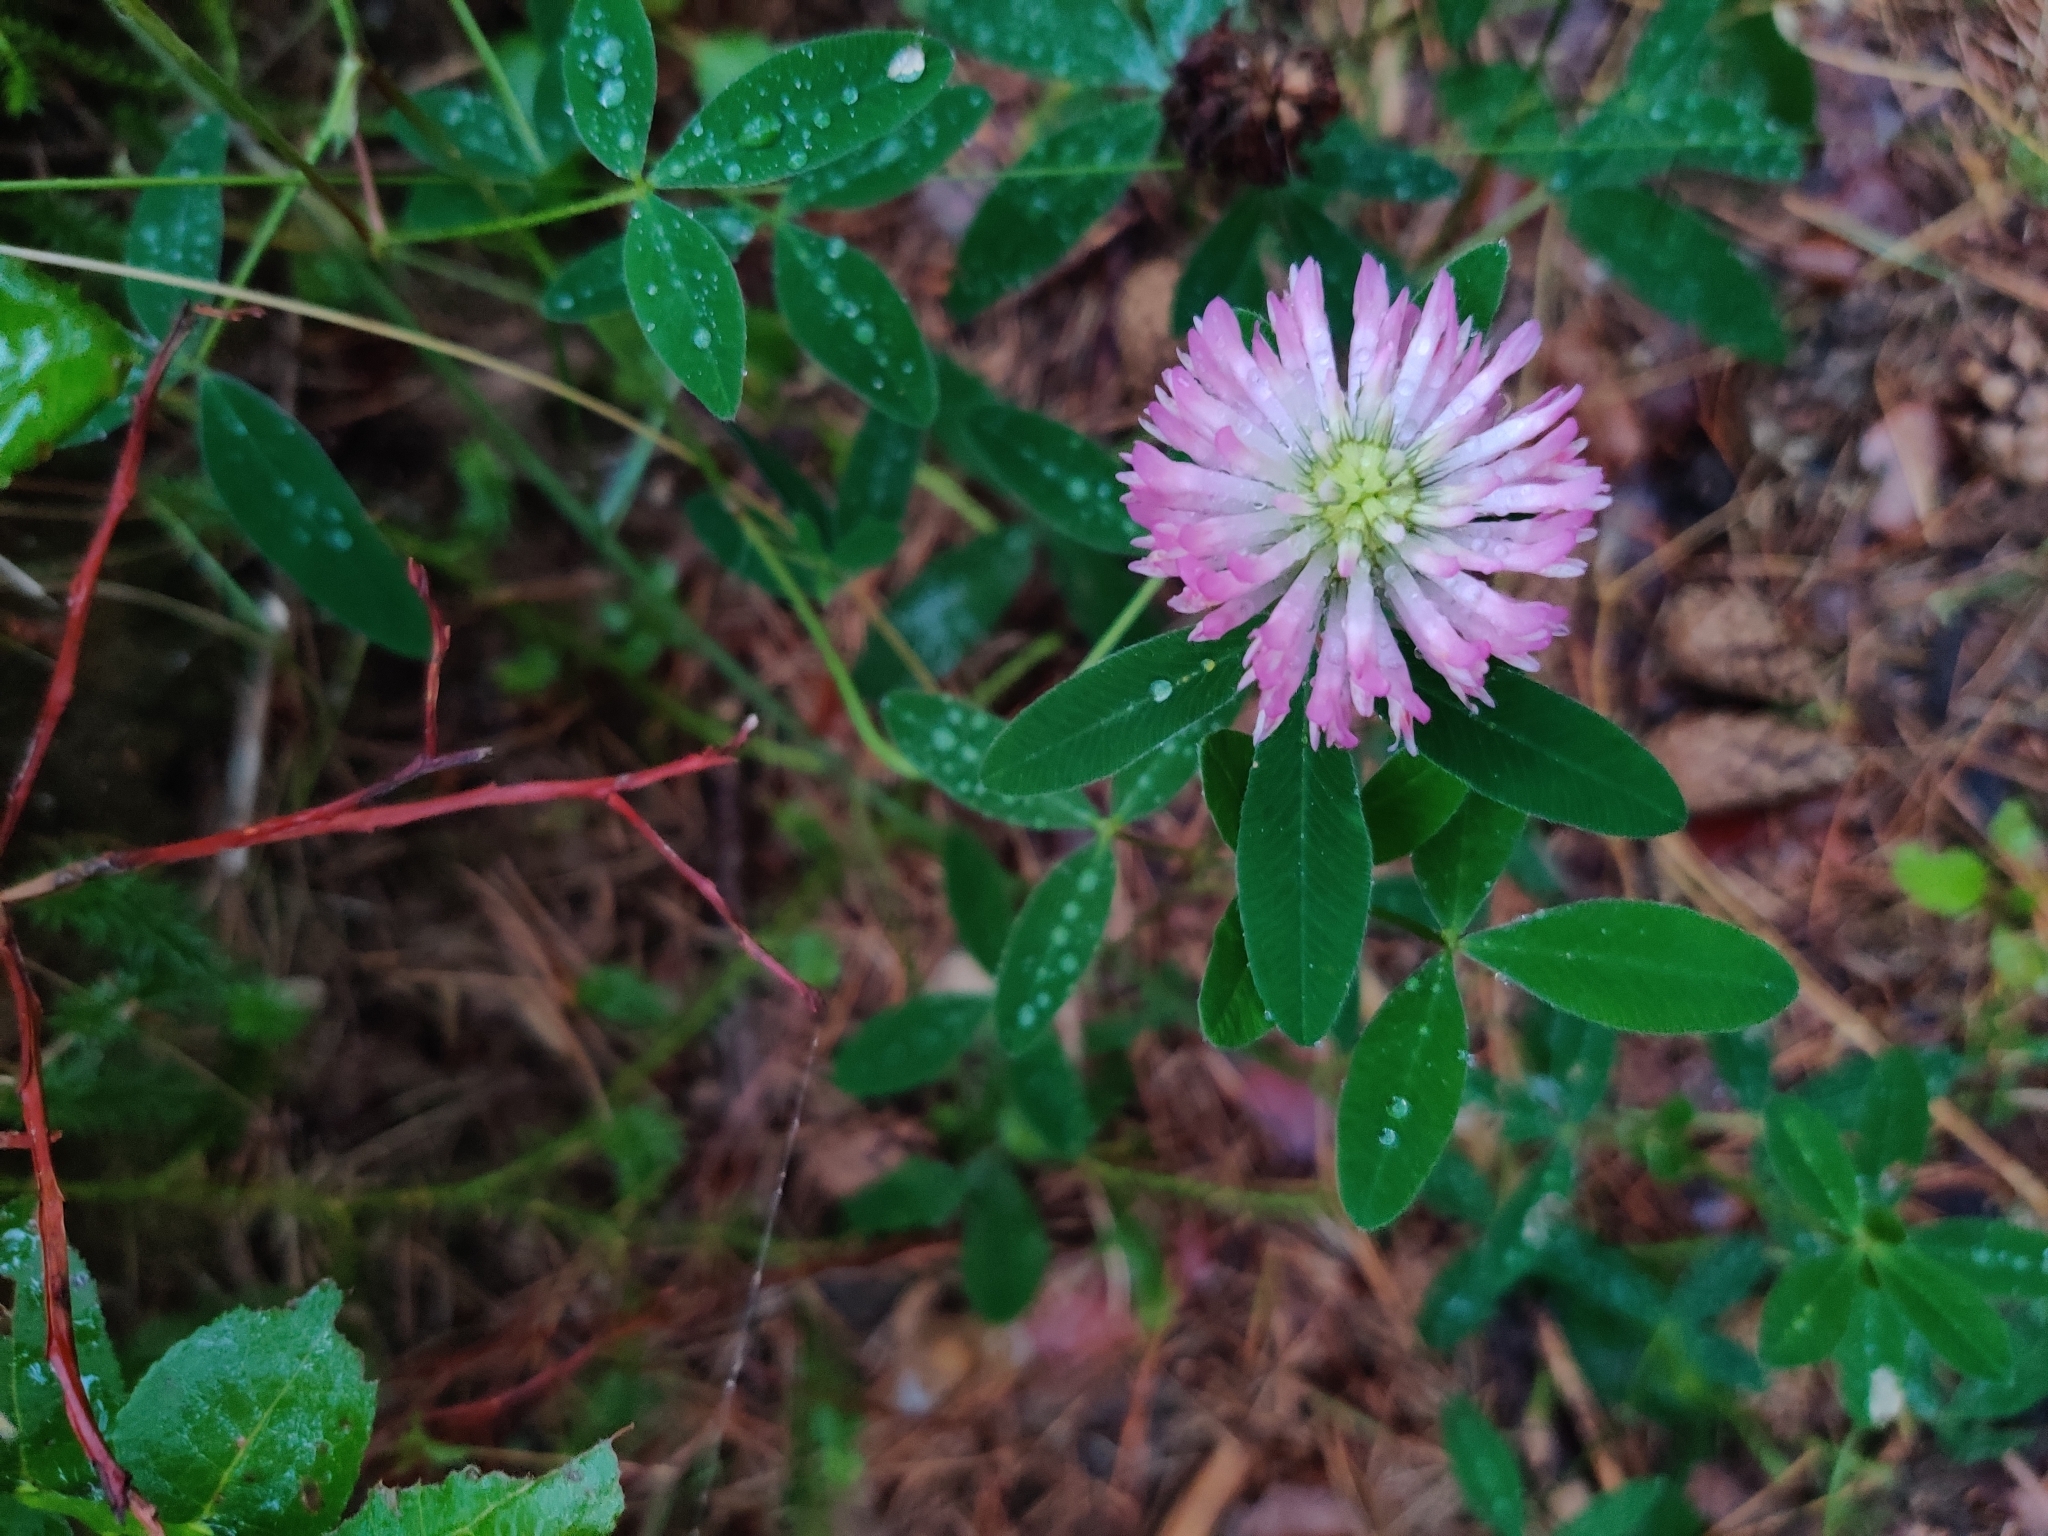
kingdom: Plantae
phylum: Tracheophyta
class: Magnoliopsida
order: Fabales
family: Fabaceae
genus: Trifolium
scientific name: Trifolium medium
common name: Zigzag clover
